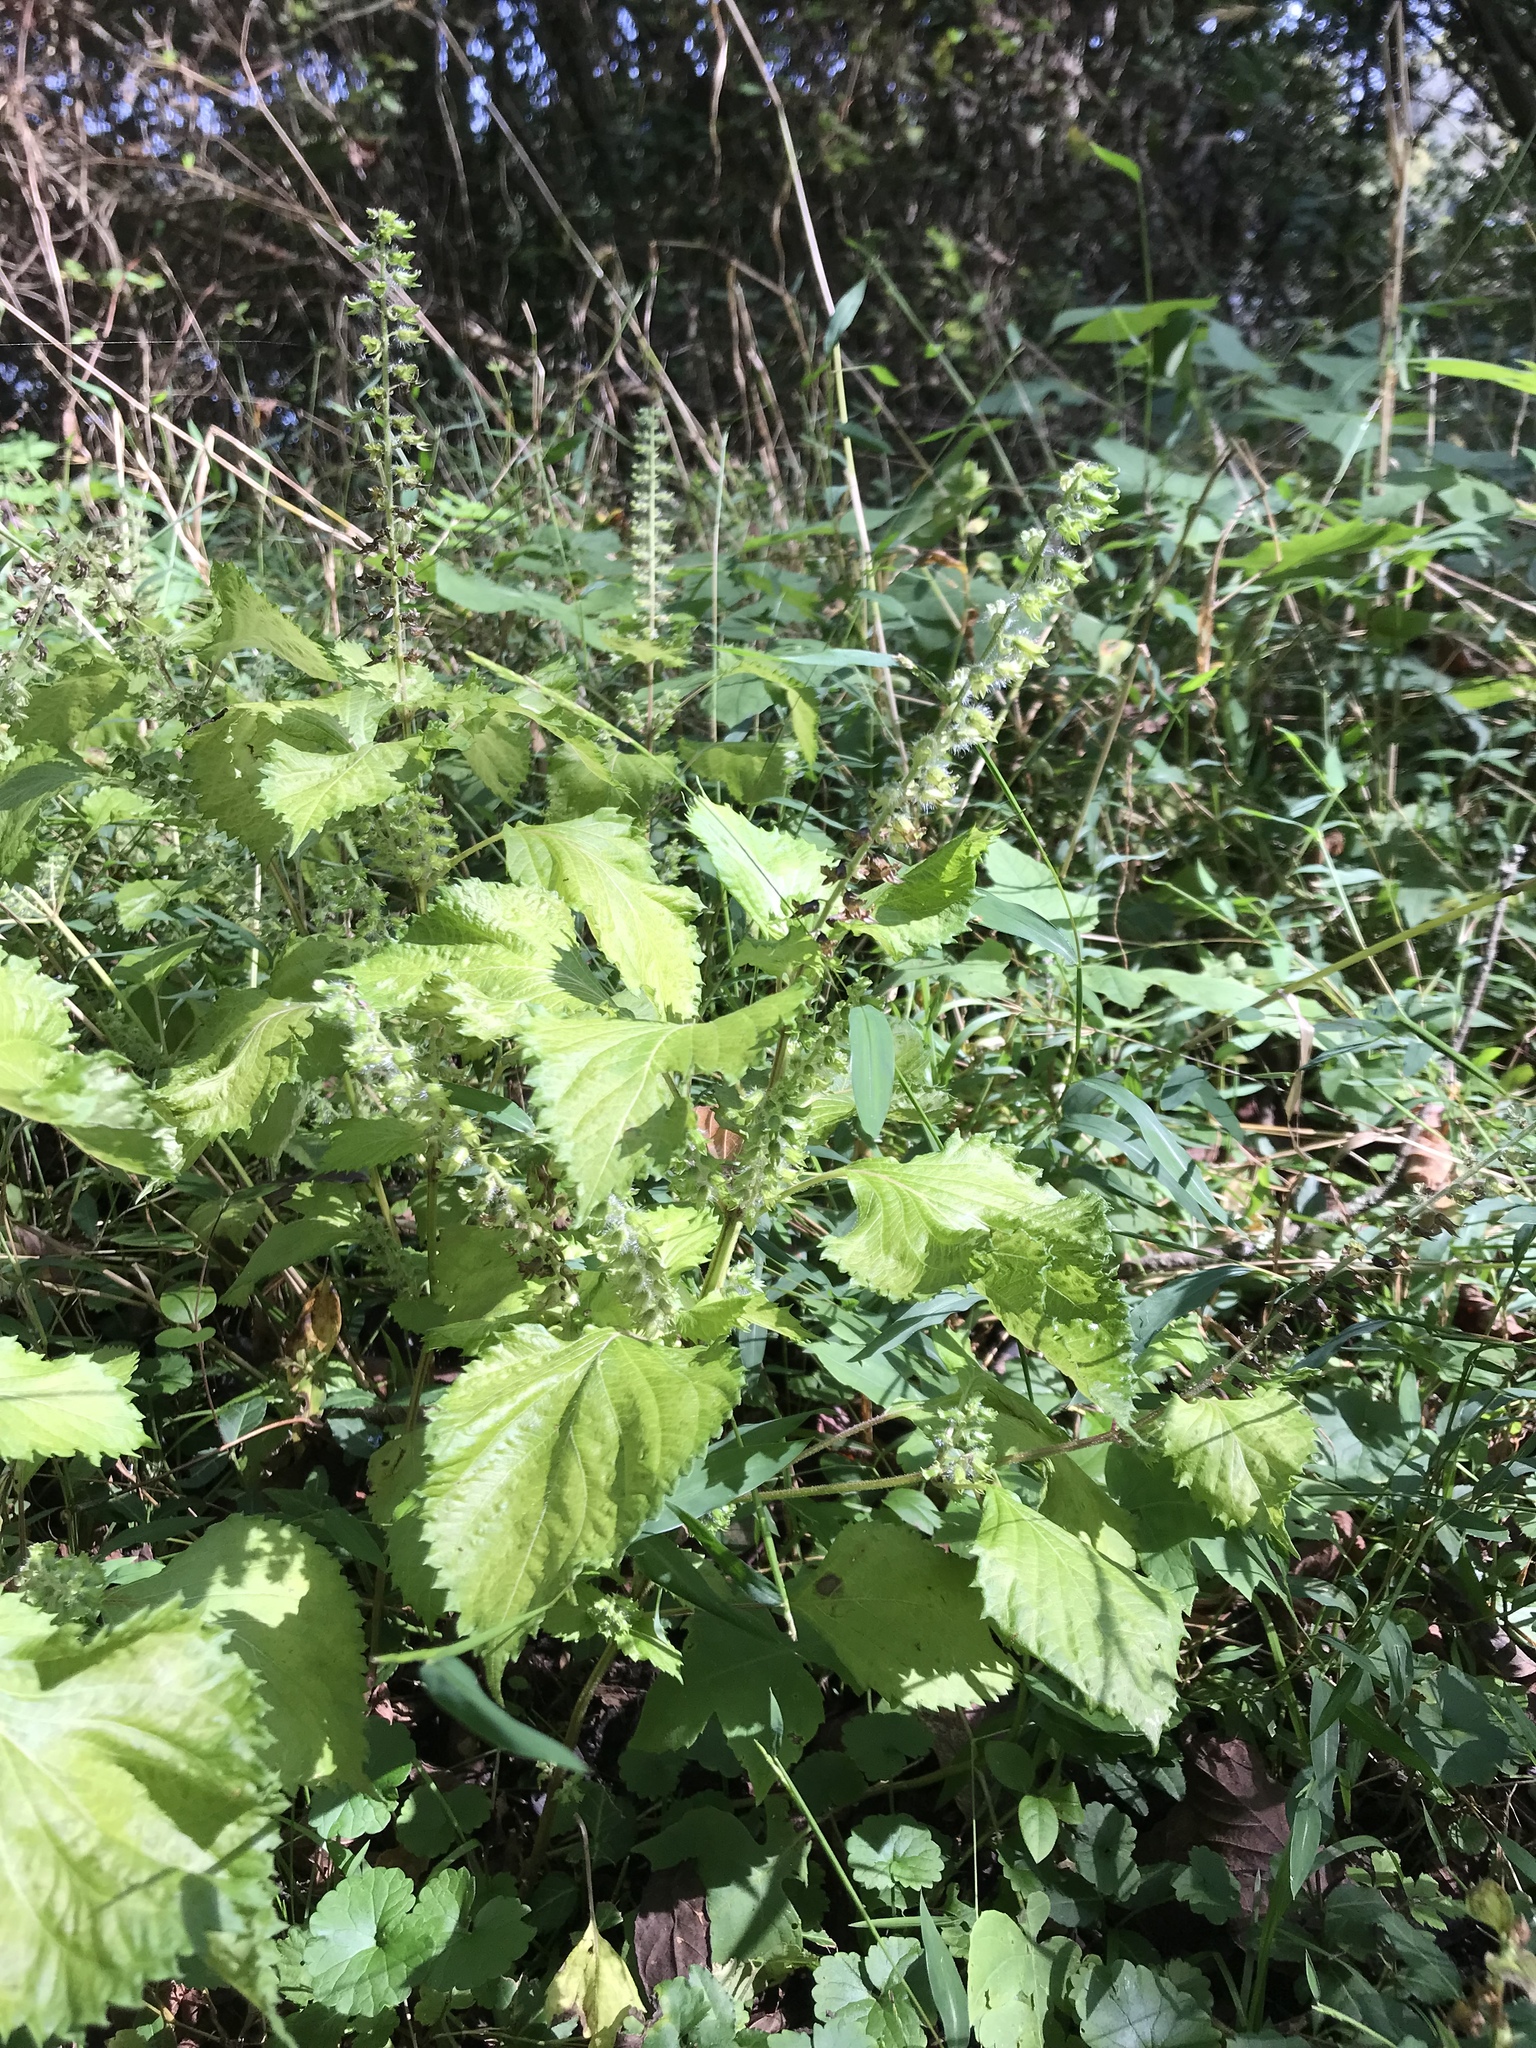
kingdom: Plantae
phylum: Tracheophyta
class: Magnoliopsida
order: Lamiales
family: Lamiaceae
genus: Perilla
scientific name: Perilla frutescens
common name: Perilla
